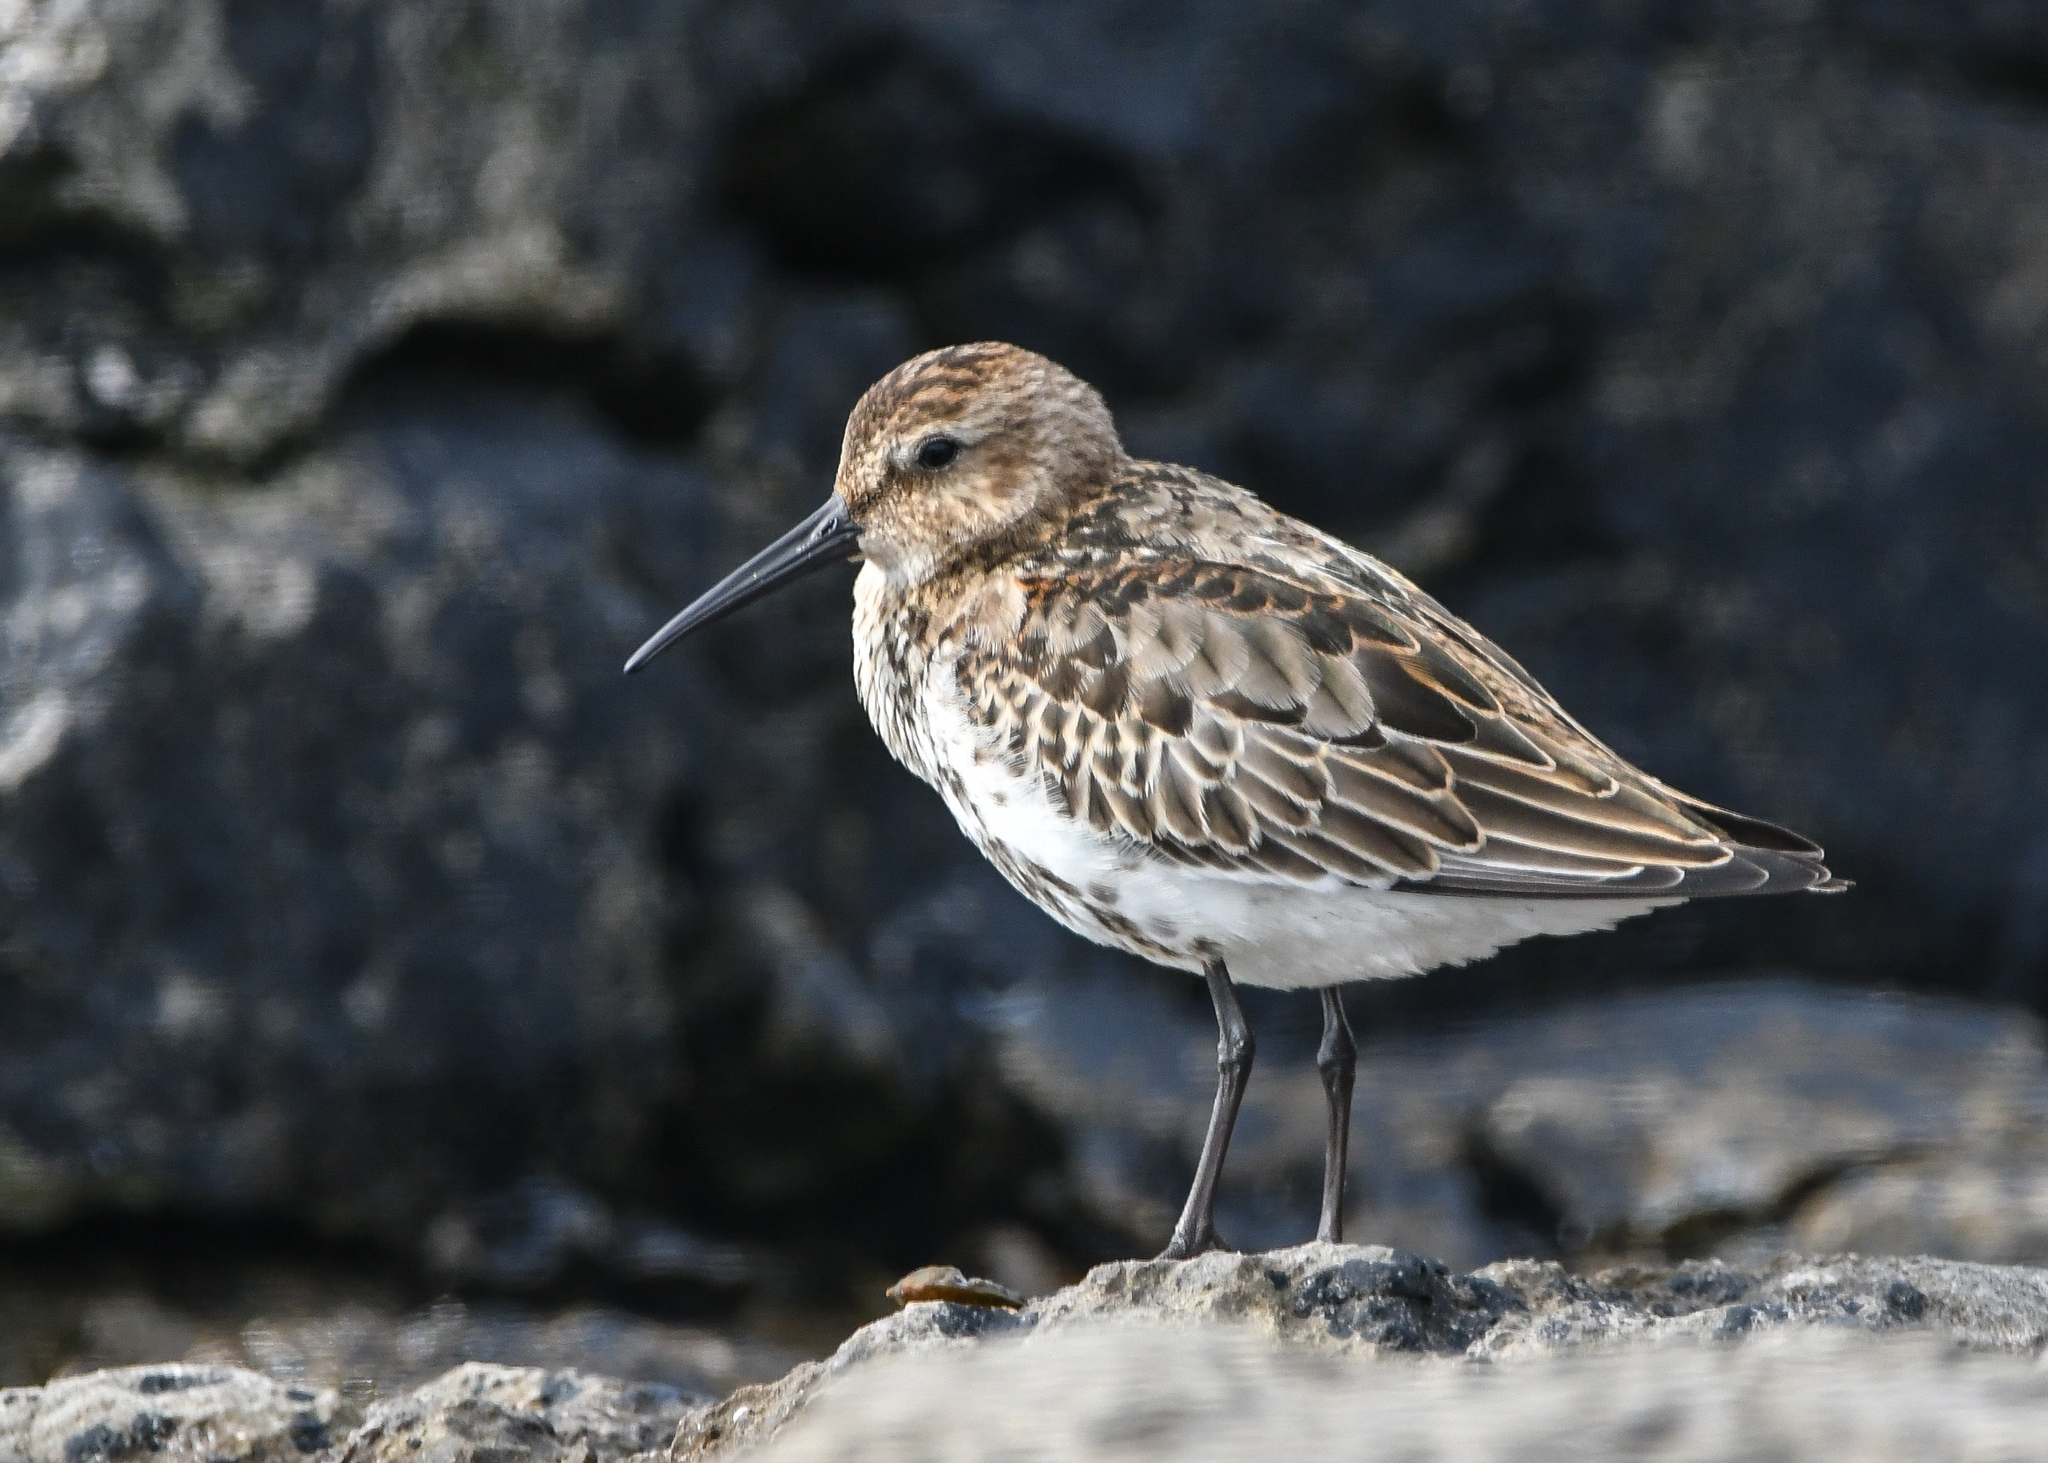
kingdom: Animalia
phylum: Chordata
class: Aves
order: Charadriiformes
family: Scolopacidae
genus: Calidris
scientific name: Calidris alpina
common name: Dunlin
